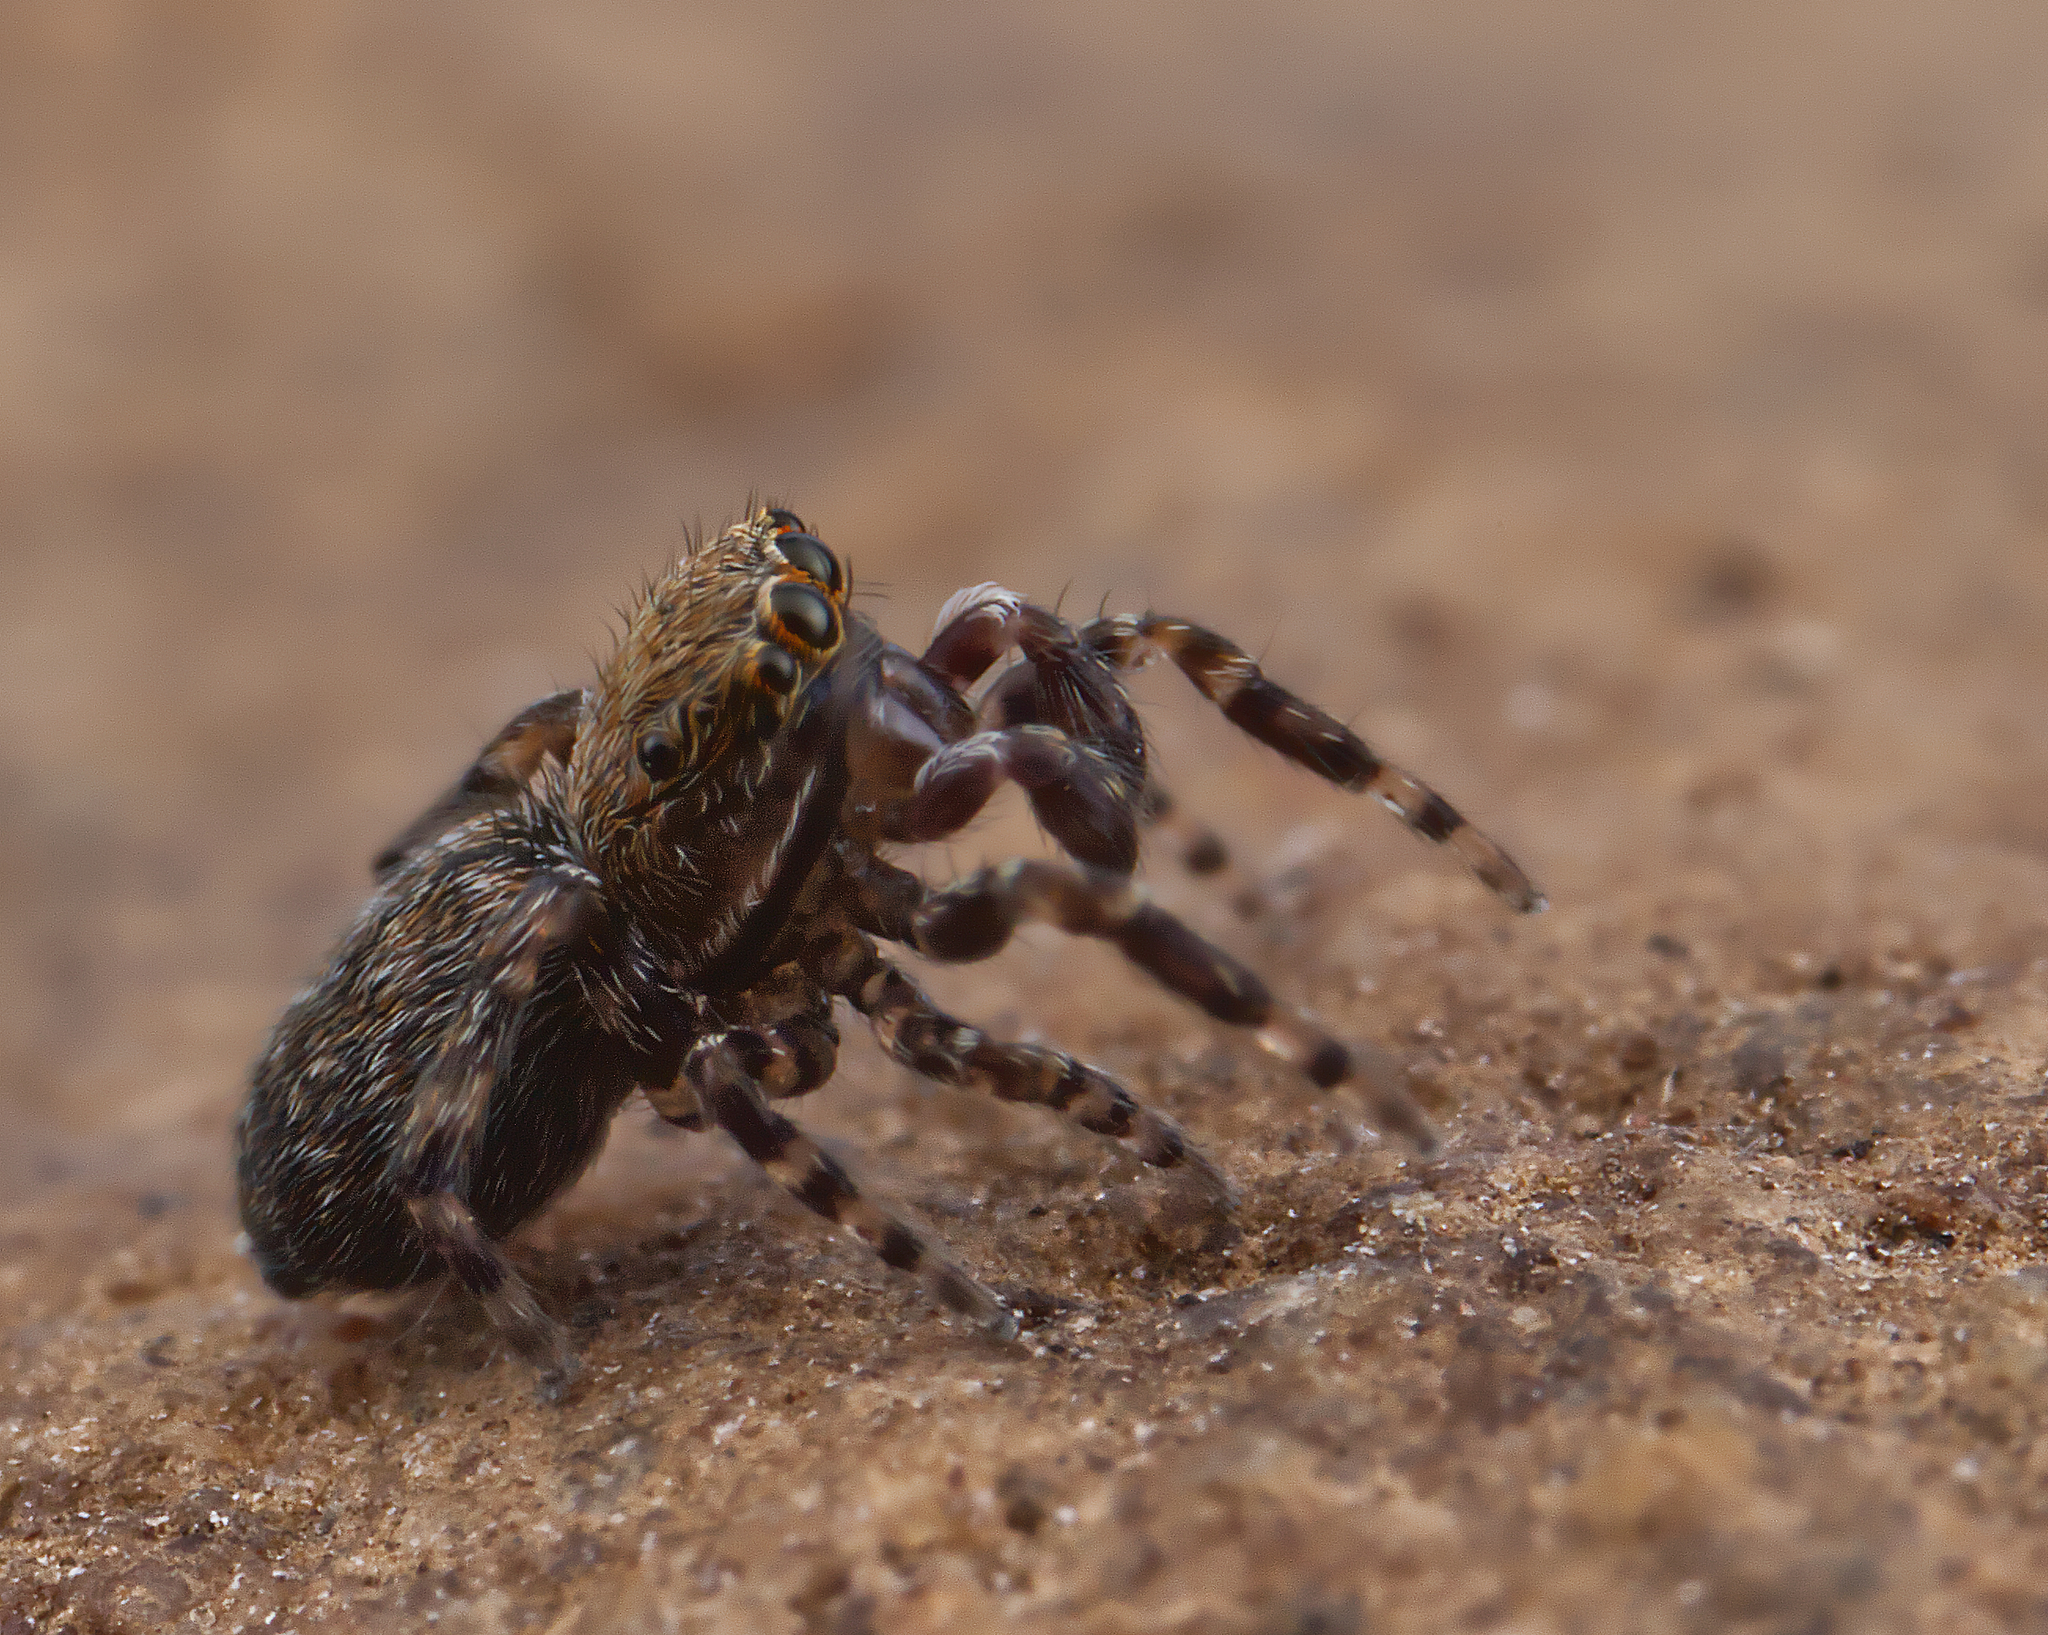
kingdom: Animalia
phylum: Arthropoda
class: Arachnida
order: Araneae
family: Salticidae
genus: Attinella
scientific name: Attinella concolor
